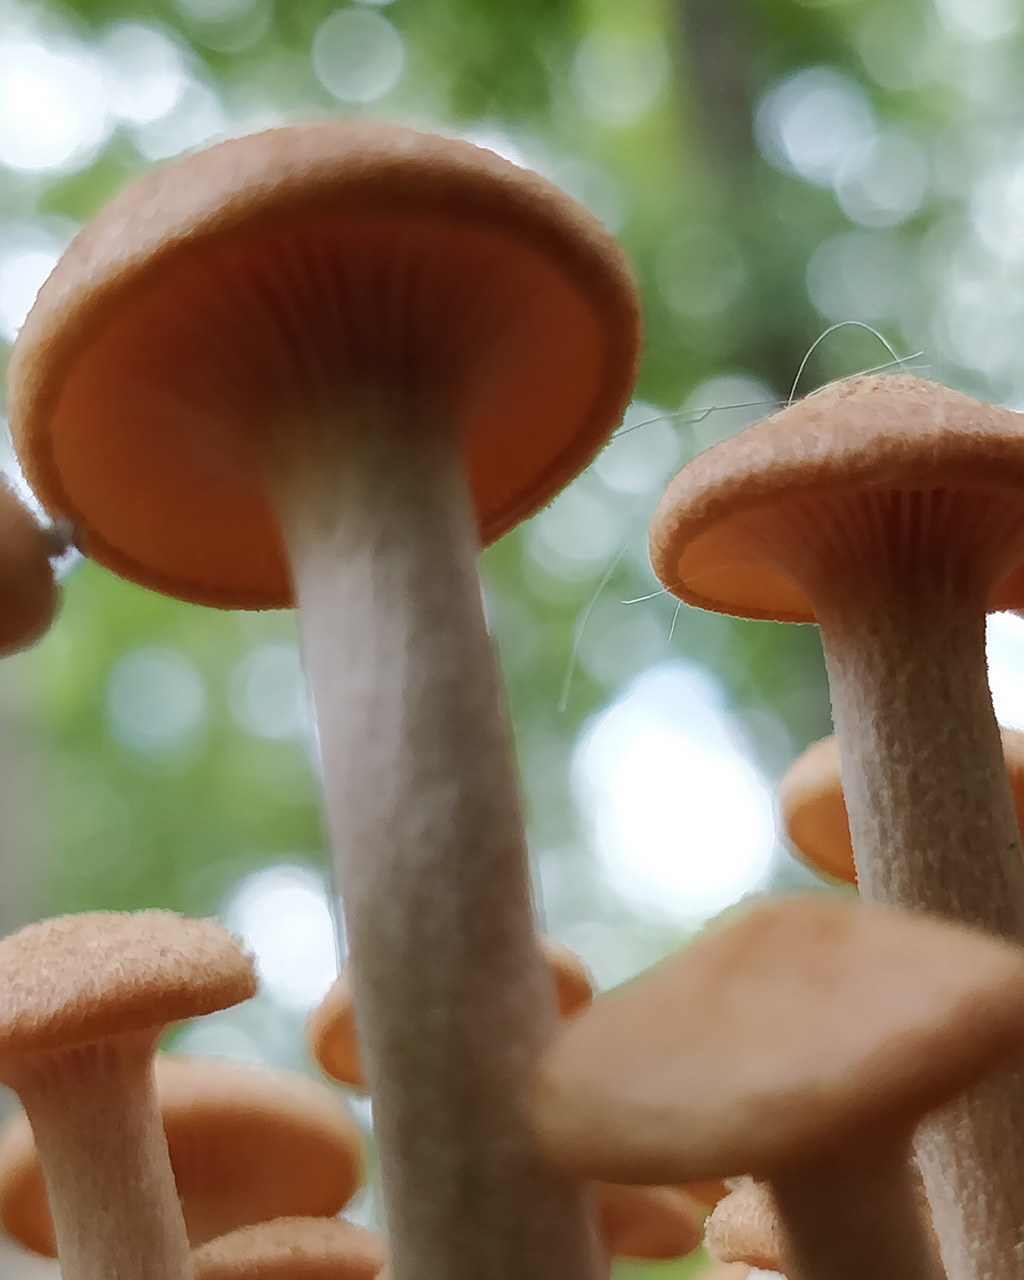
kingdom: Fungi
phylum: Basidiomycota
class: Agaricomycetes
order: Agaricales
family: Physalacriaceae
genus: Desarmillaria
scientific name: Desarmillaria caespitosa
